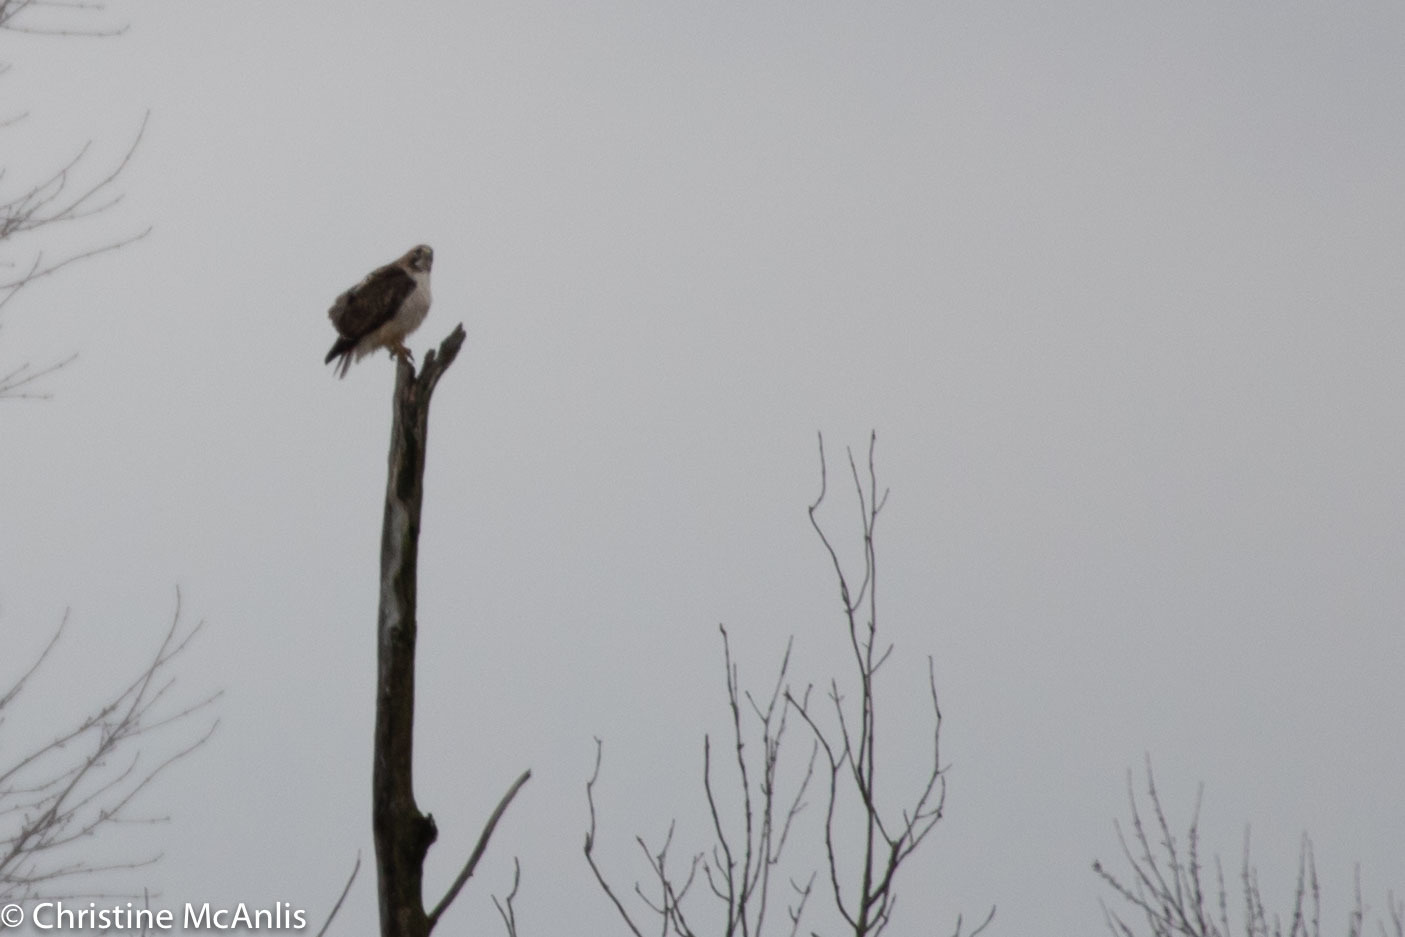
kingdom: Animalia
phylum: Chordata
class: Aves
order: Accipitriformes
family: Accipitridae
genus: Buteo
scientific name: Buteo jamaicensis
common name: Red-tailed hawk
